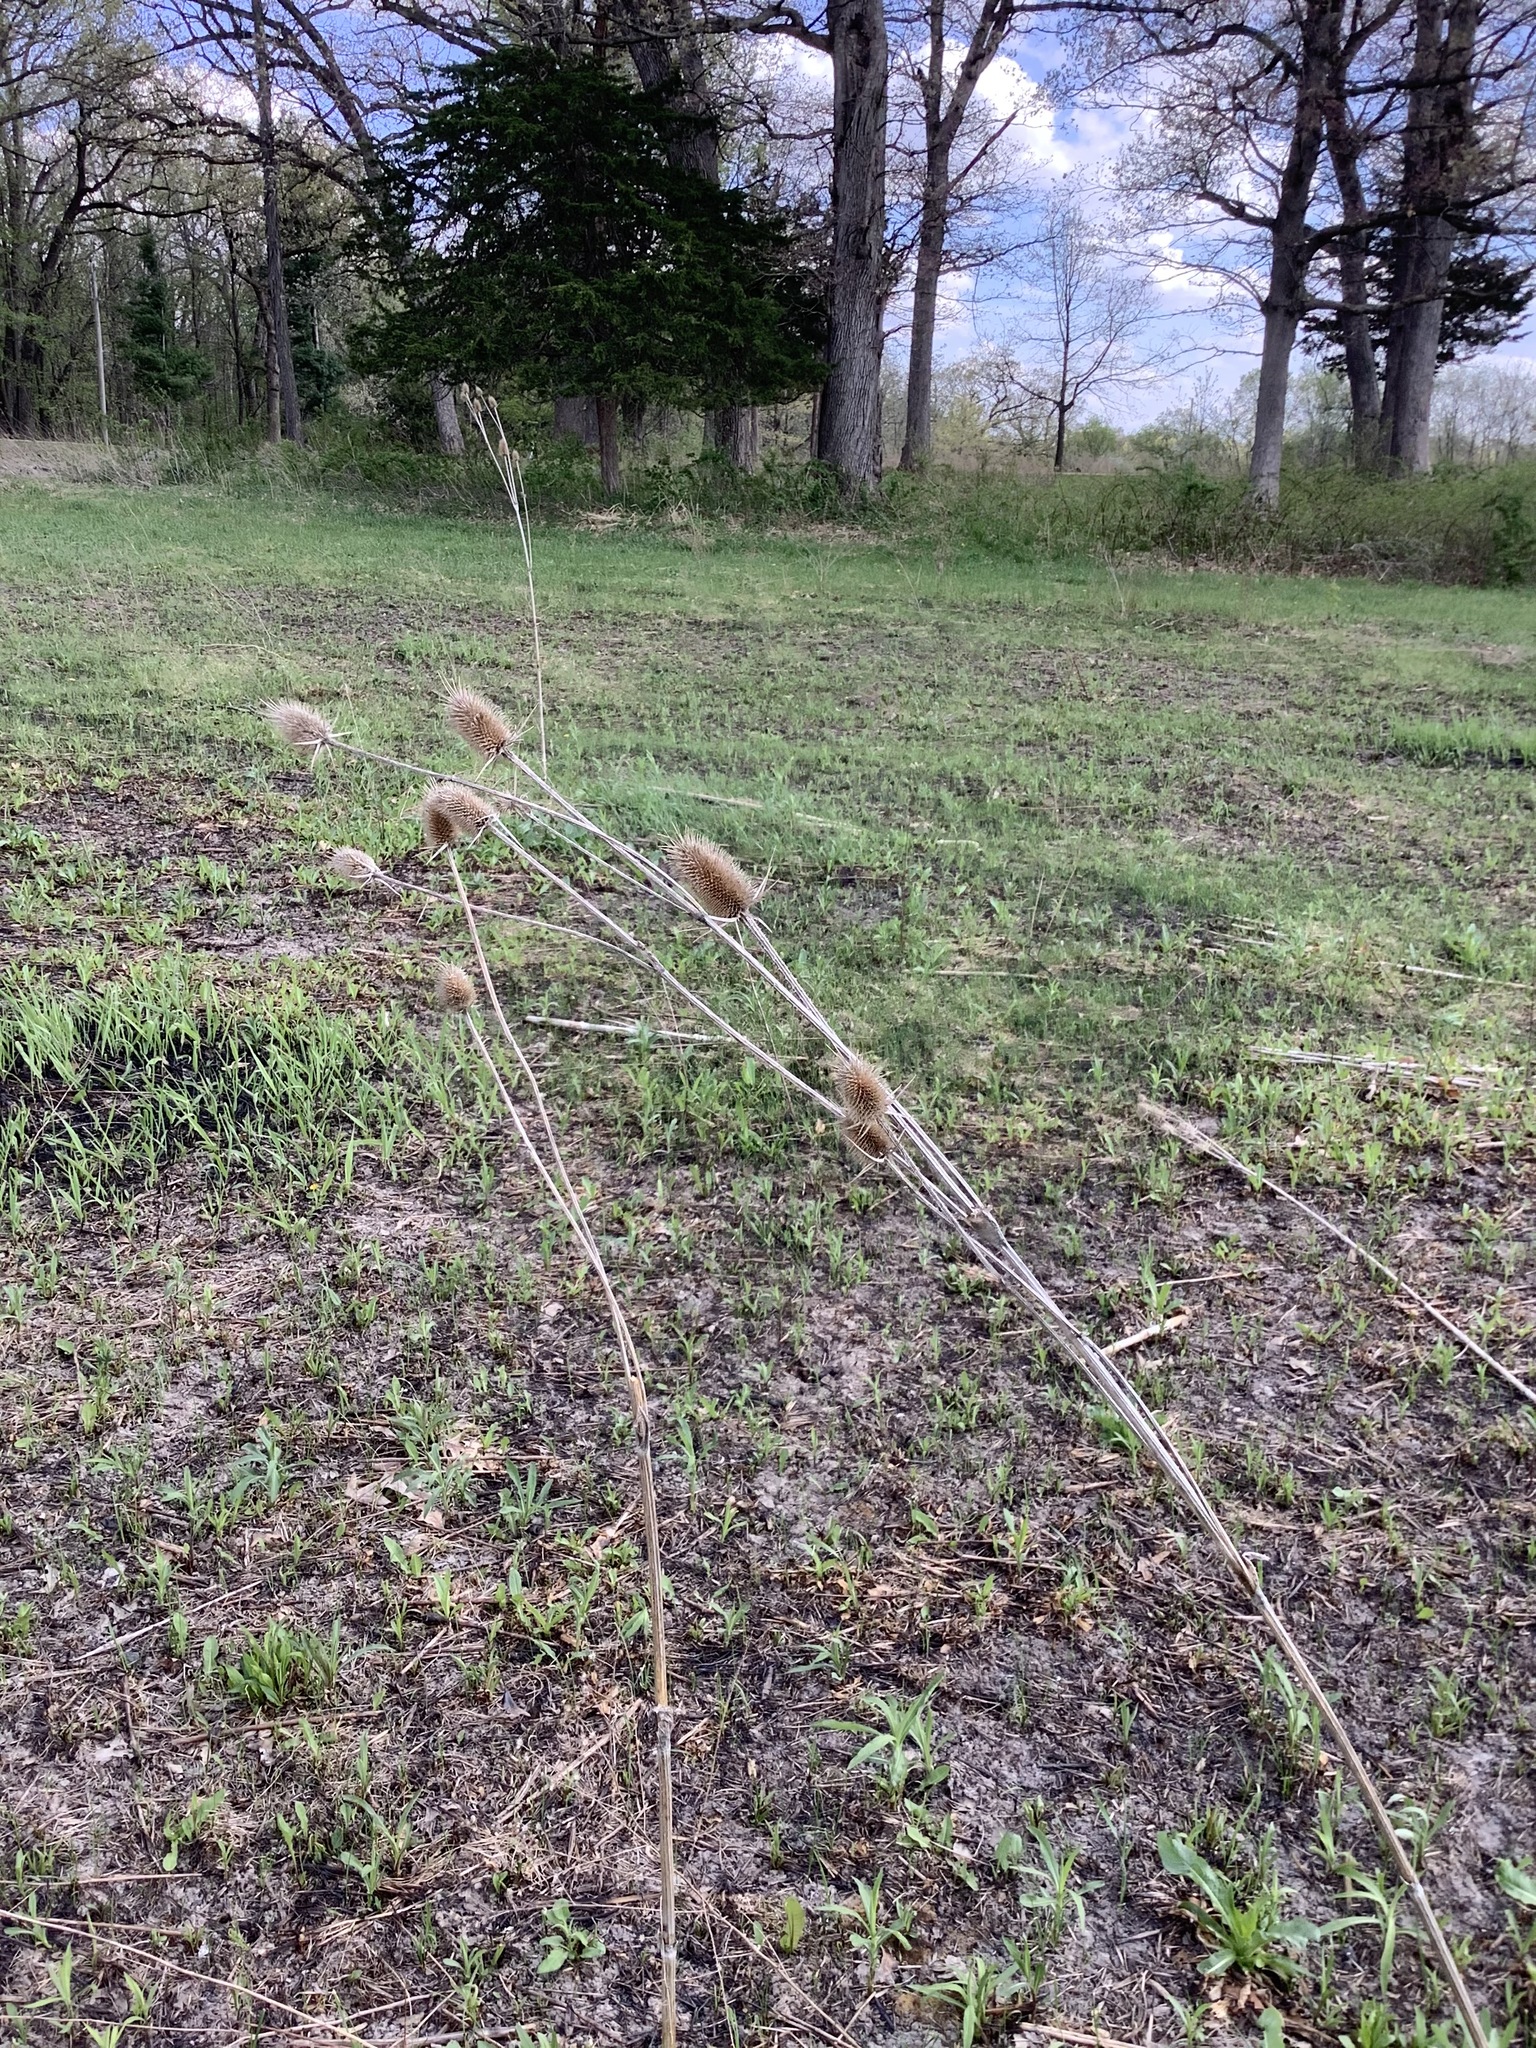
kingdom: Plantae
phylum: Tracheophyta
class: Magnoliopsida
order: Dipsacales
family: Caprifoliaceae
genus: Dipsacus
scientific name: Dipsacus laciniatus
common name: Cut-leaved teasel
